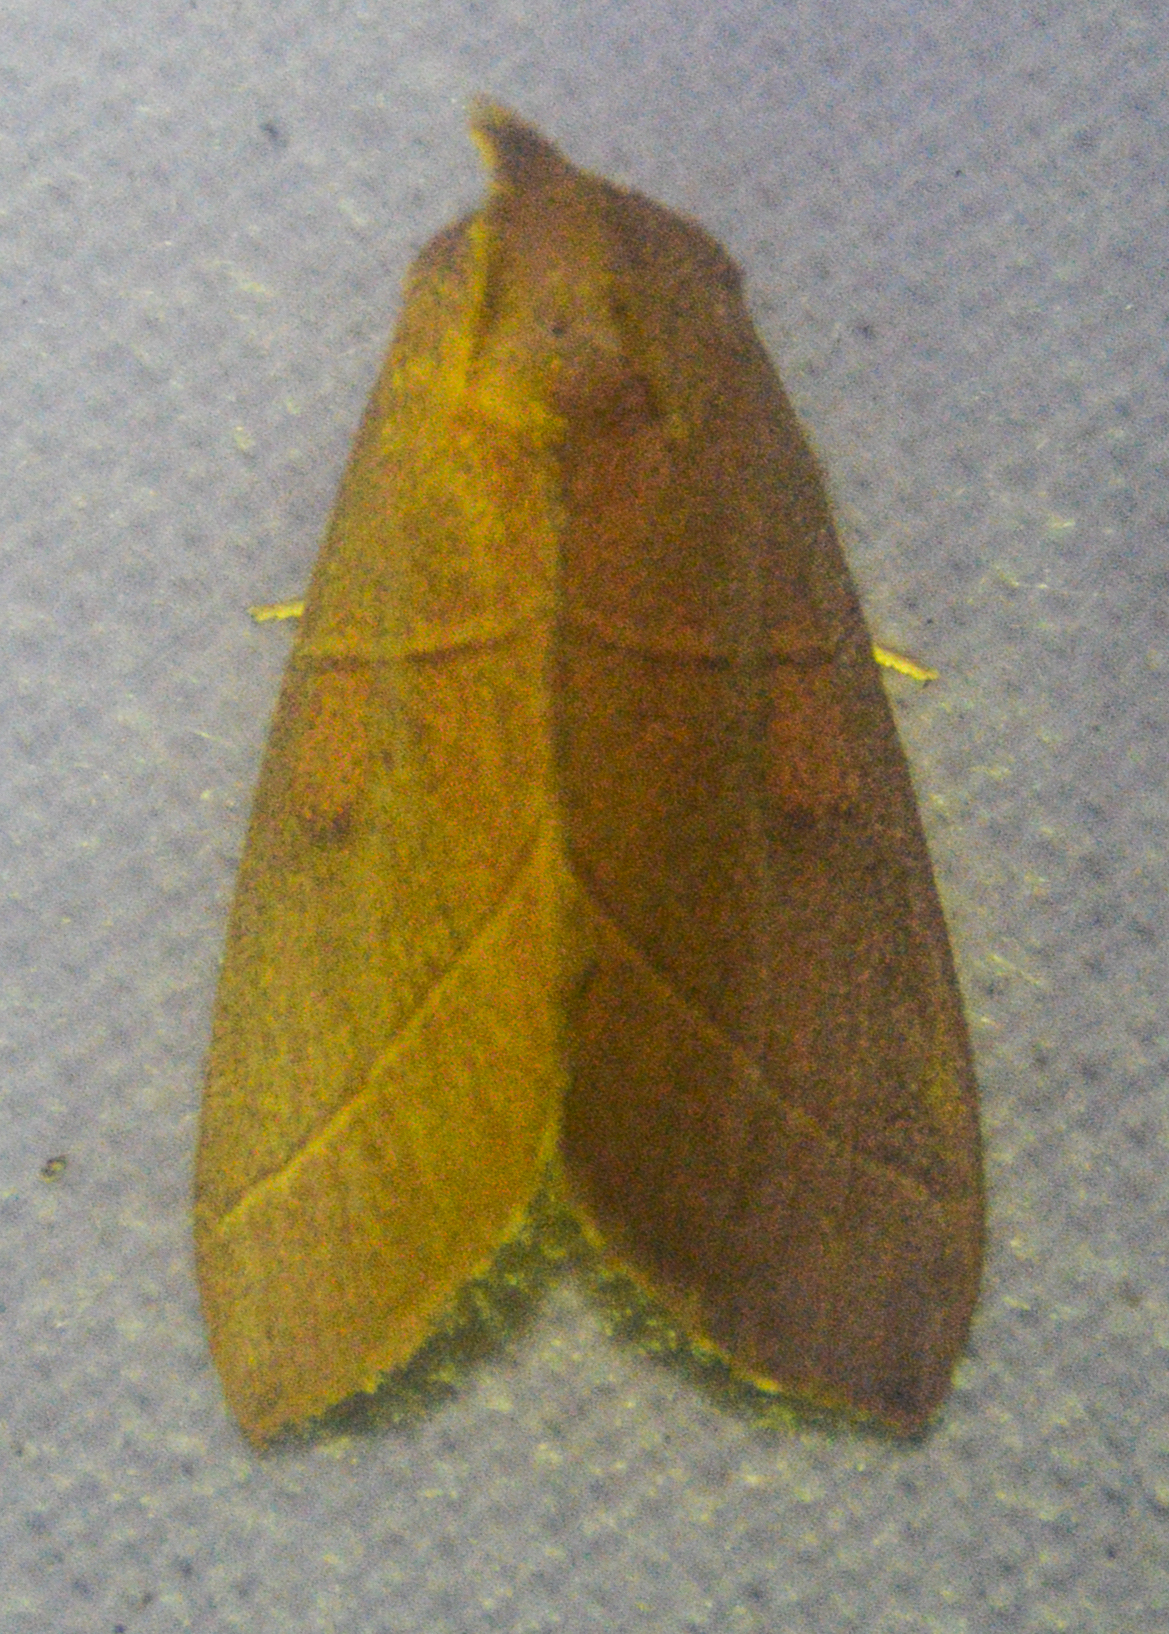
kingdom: Animalia
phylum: Arthropoda
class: Insecta
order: Lepidoptera
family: Notodontidae
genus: Nadata
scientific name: Nadata gibbosa
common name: White-dotted prominent
